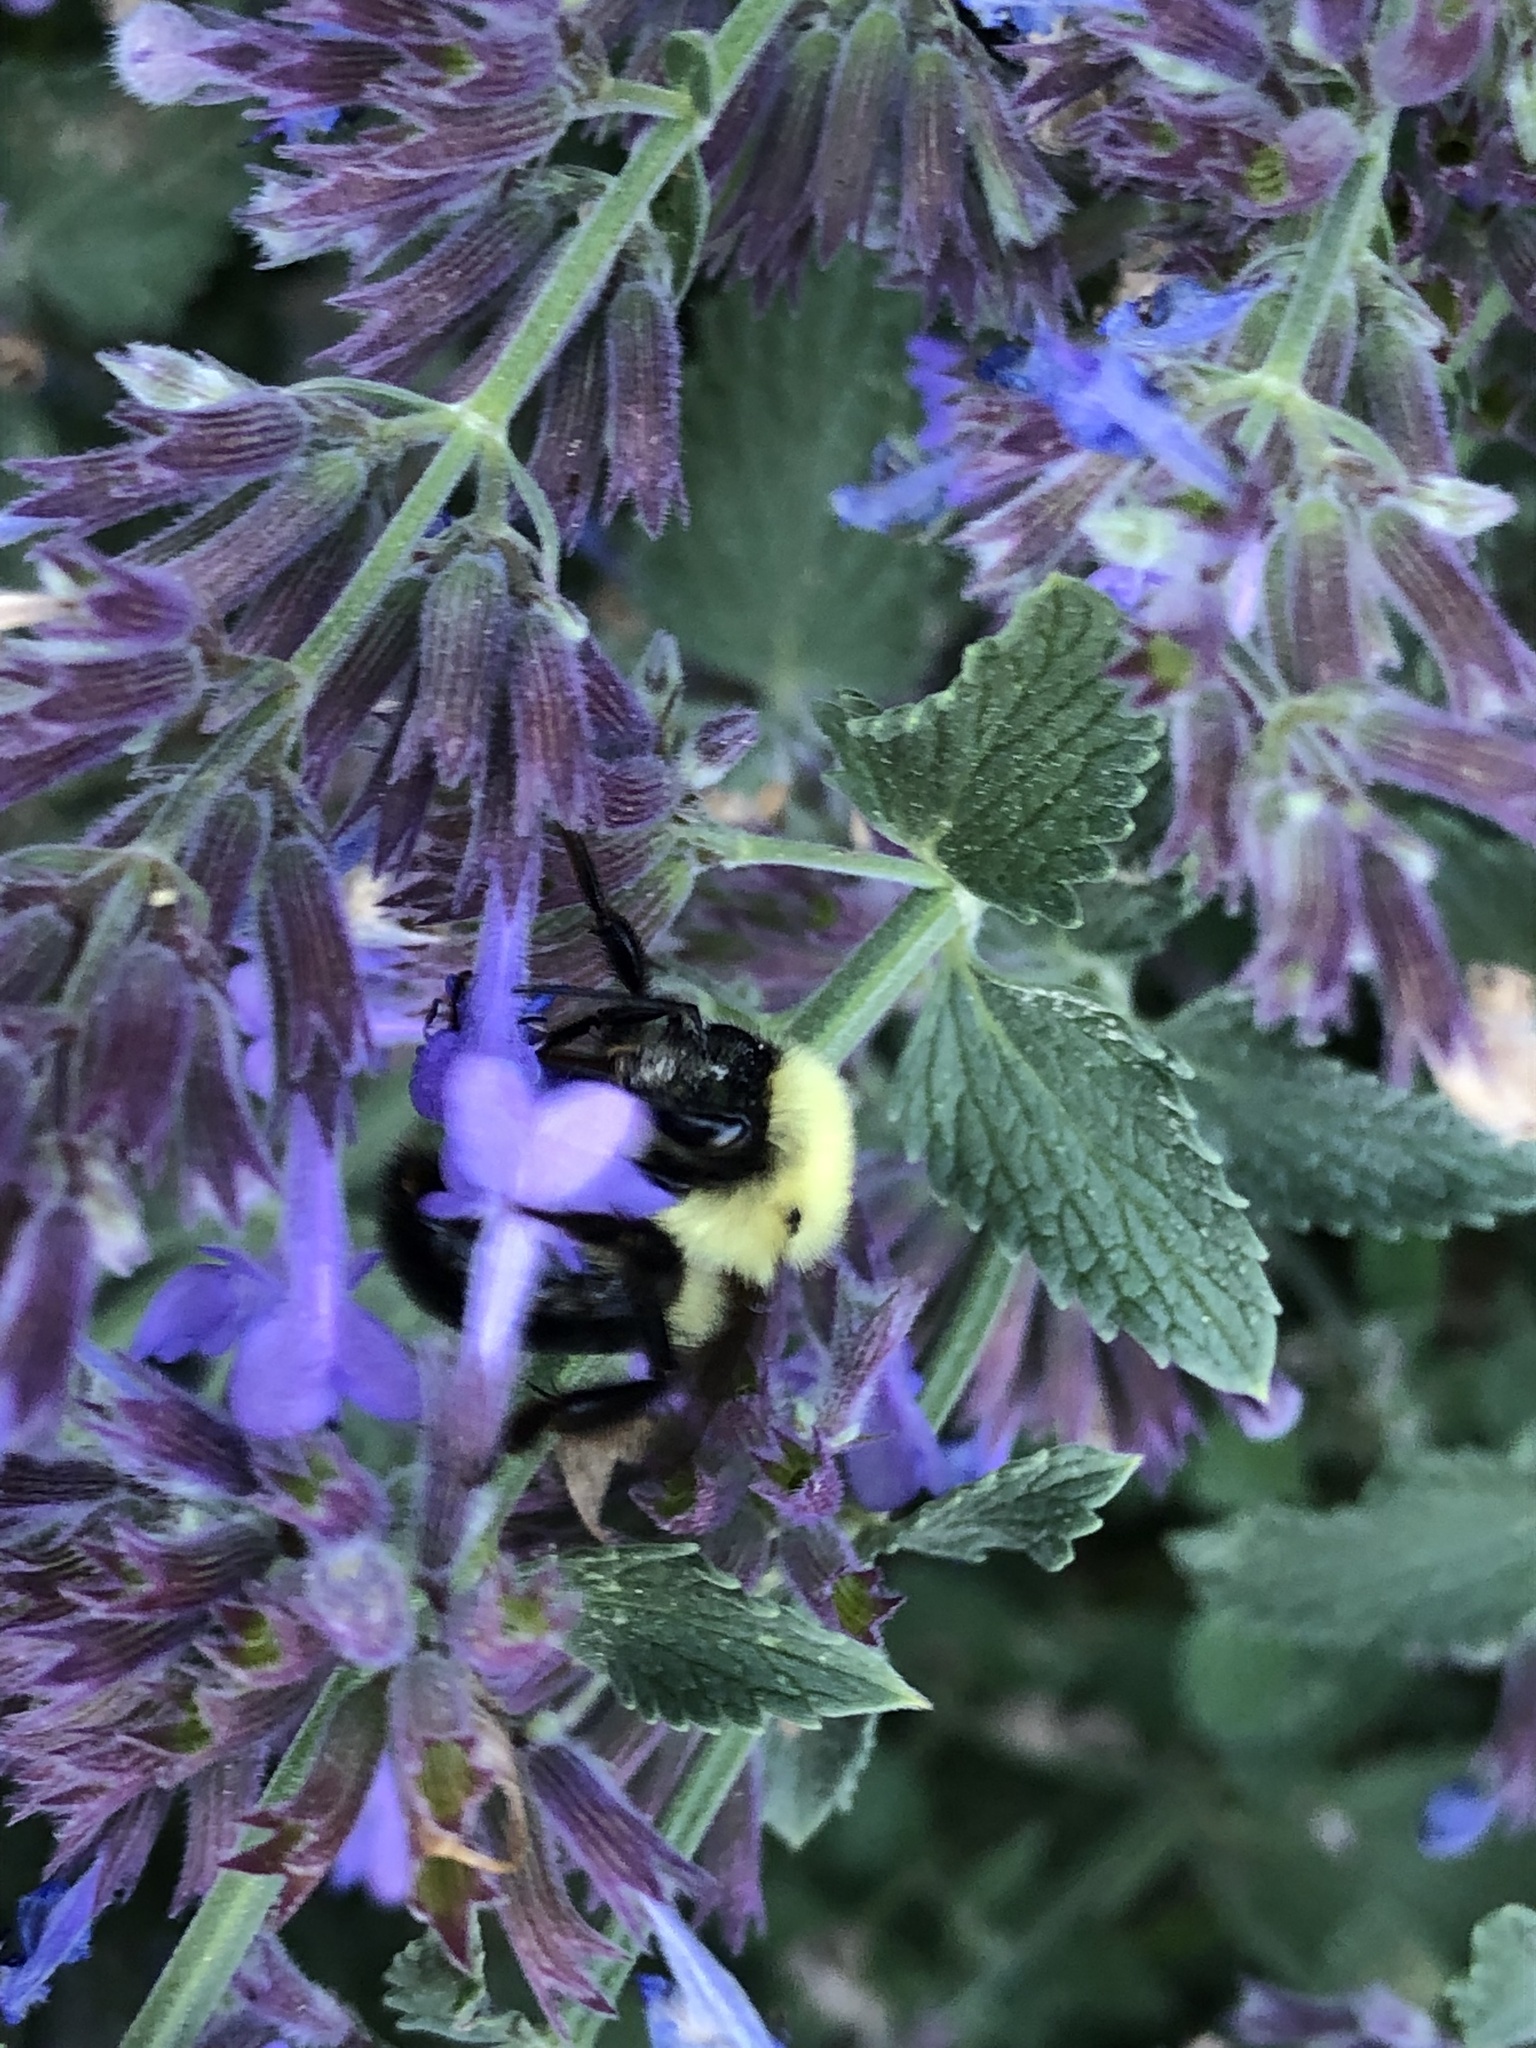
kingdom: Animalia
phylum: Arthropoda
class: Insecta
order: Hymenoptera
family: Apidae
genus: Bombus
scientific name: Bombus bimaculatus
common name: Two-spotted bumble bee
